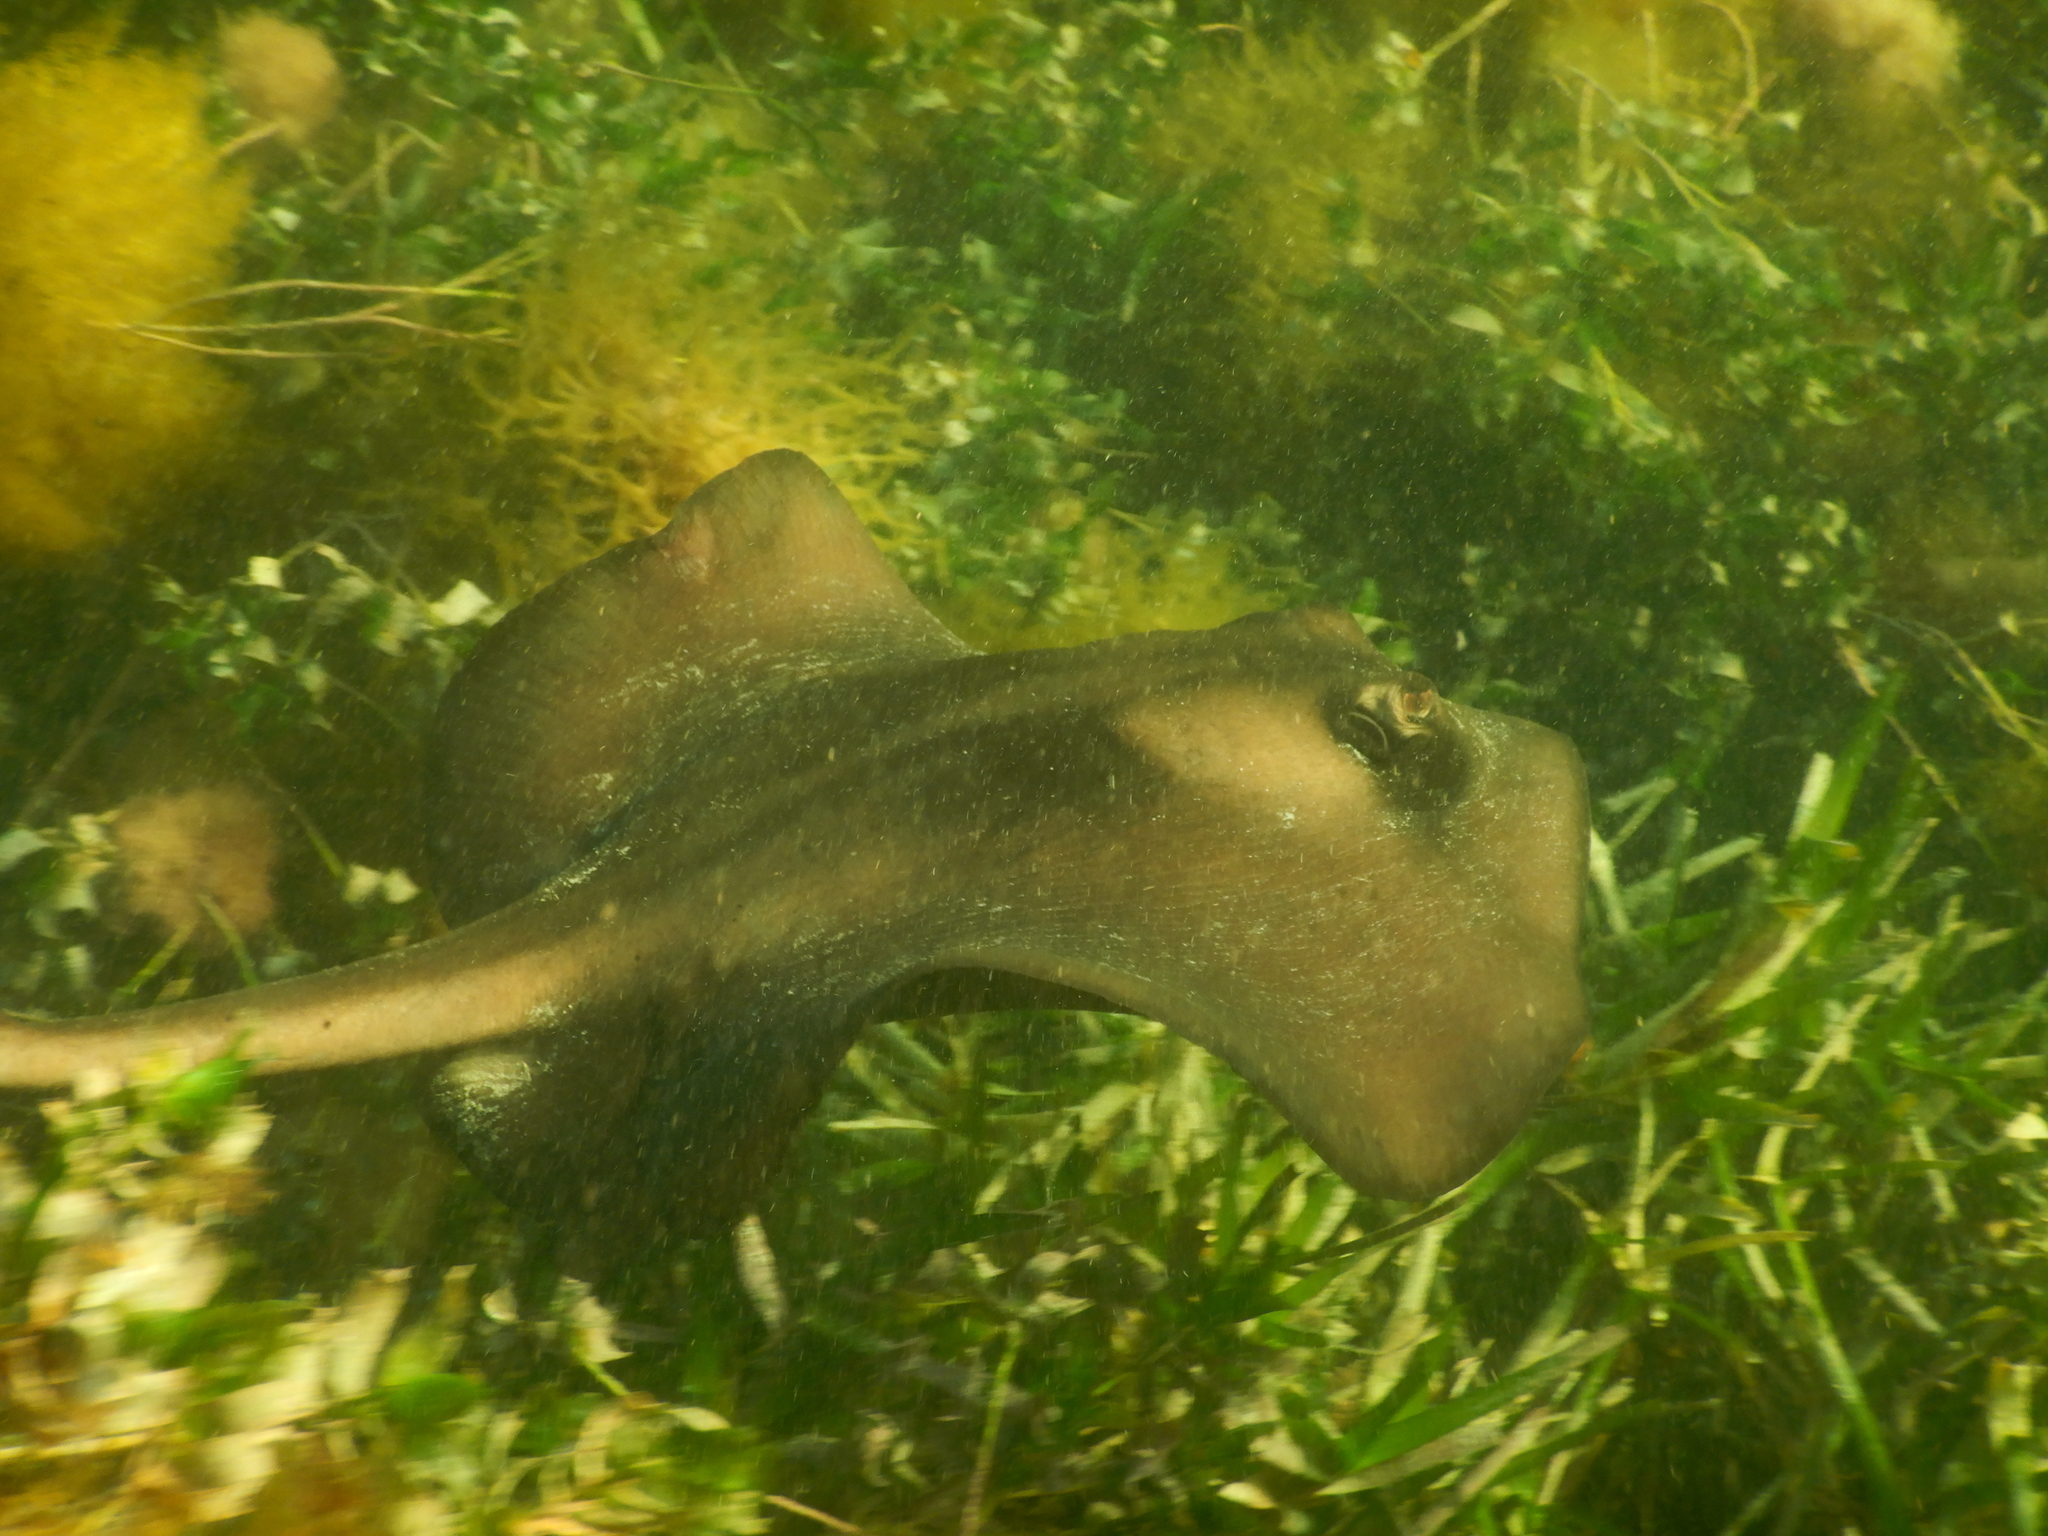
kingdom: Animalia
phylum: Chordata
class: Elasmobranchii
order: Myliobatiformes
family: Urolophidae
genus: Trygonoptera
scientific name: Trygonoptera ovalis
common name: Striped stingaree
